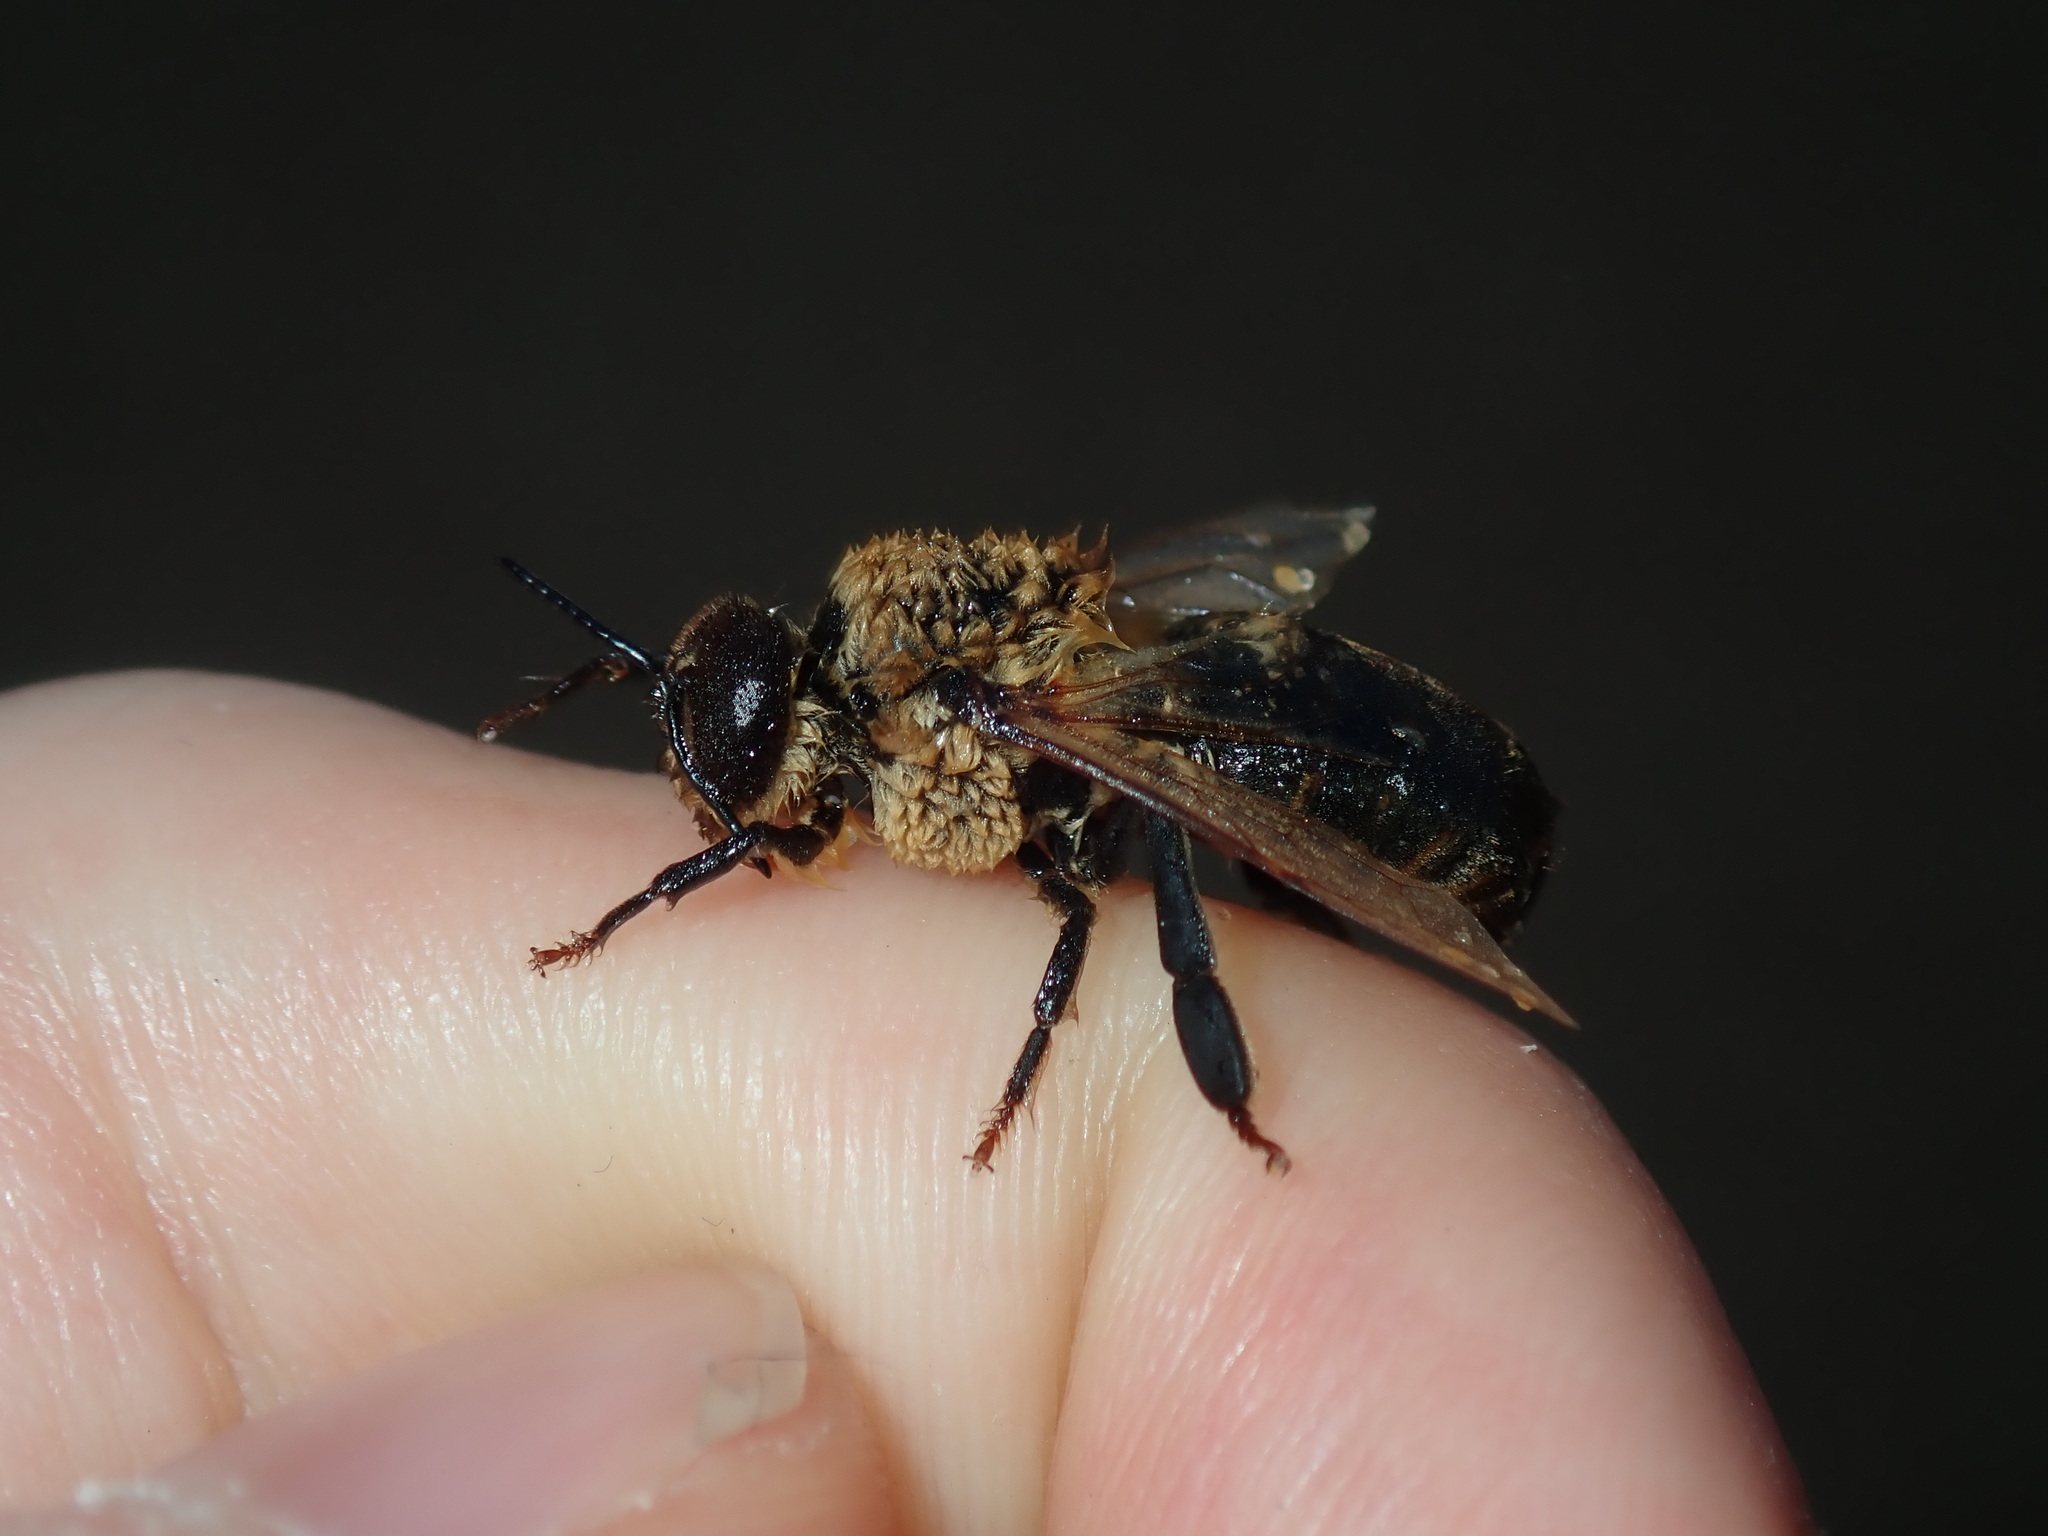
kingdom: Animalia
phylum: Arthropoda
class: Insecta
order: Hymenoptera
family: Apidae
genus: Apis
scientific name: Apis mellifera
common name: Honey bee
